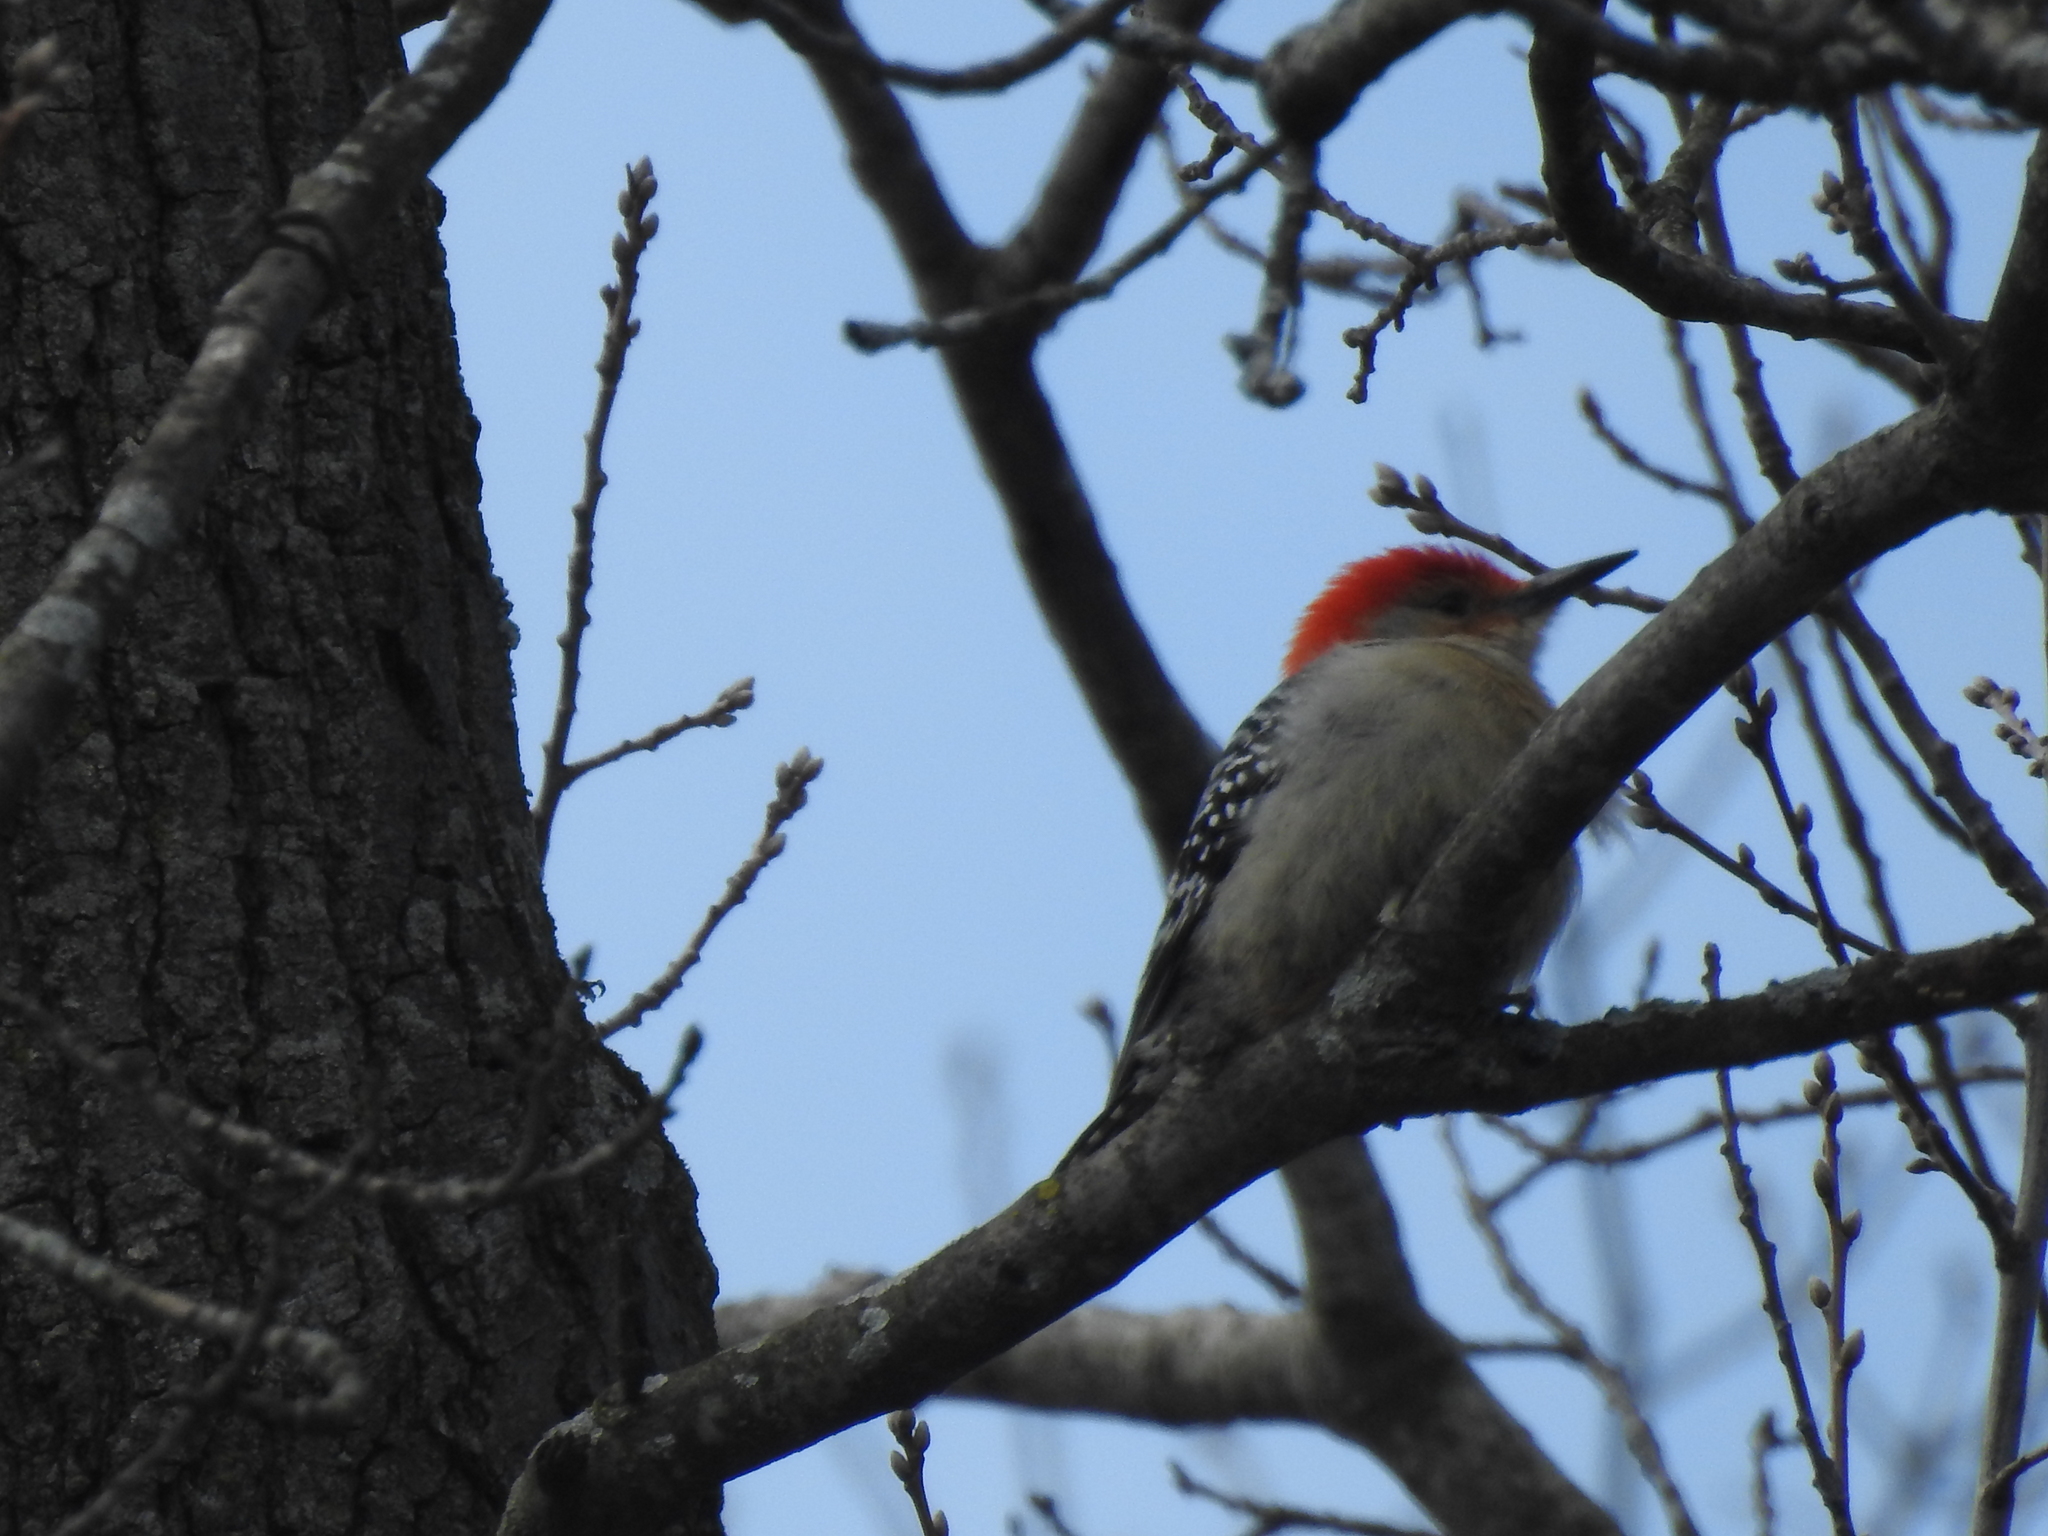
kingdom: Animalia
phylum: Chordata
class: Aves
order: Piciformes
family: Picidae
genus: Melanerpes
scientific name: Melanerpes carolinus
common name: Red-bellied woodpecker
